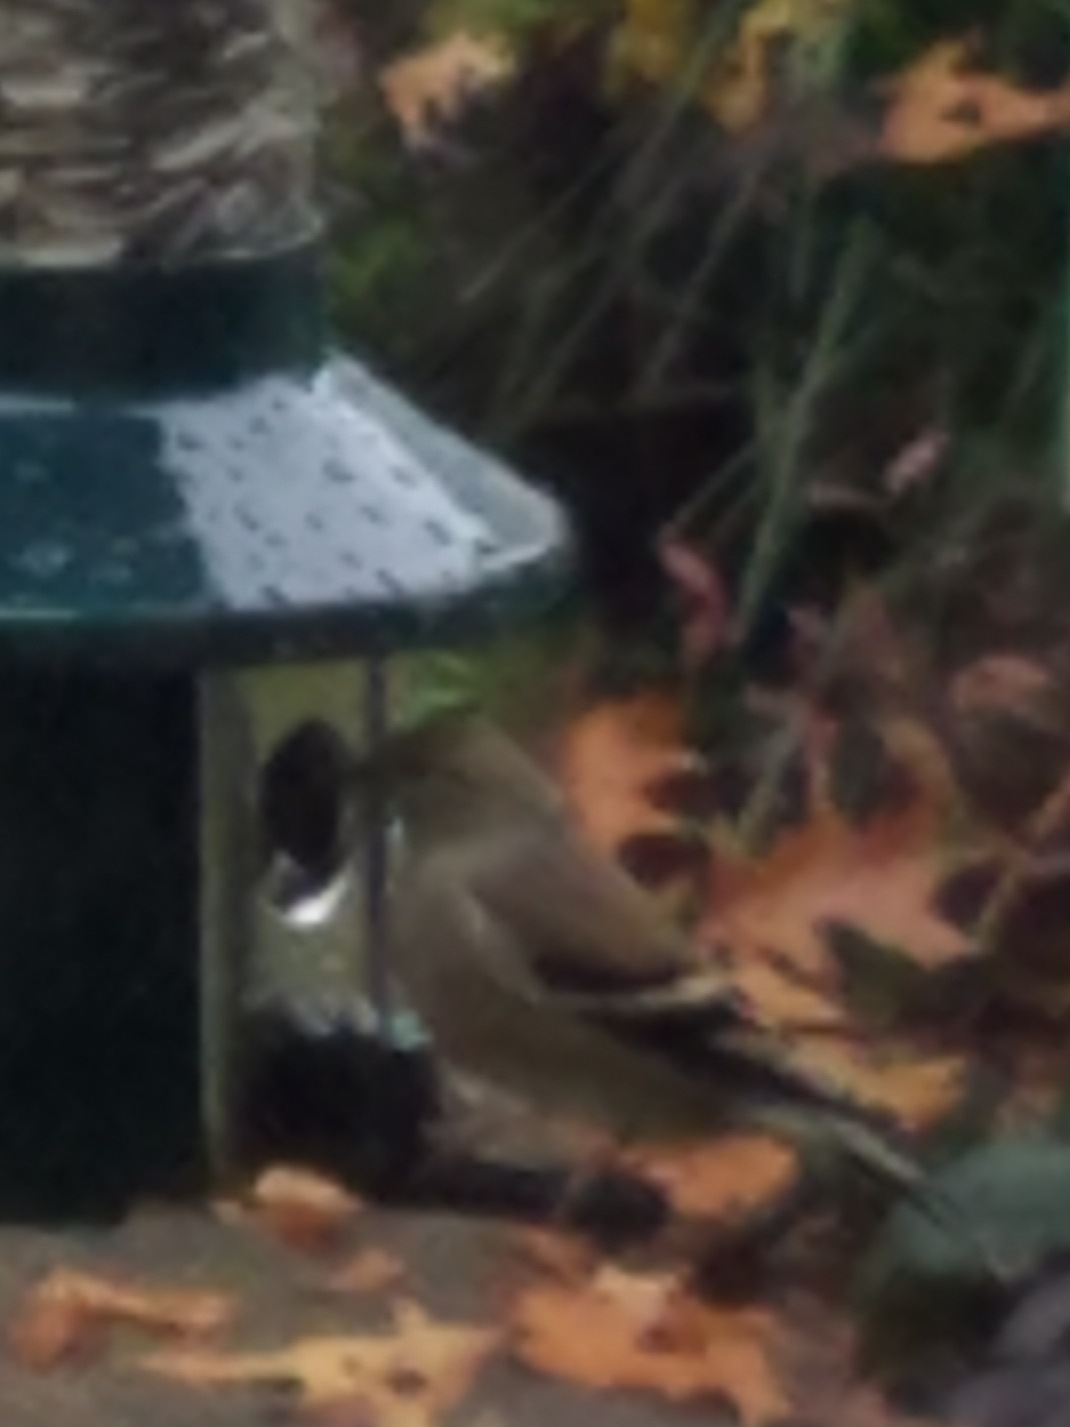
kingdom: Animalia
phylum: Chordata
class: Aves
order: Passeriformes
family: Fringillidae
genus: Spinus
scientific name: Spinus tristis
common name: American goldfinch
